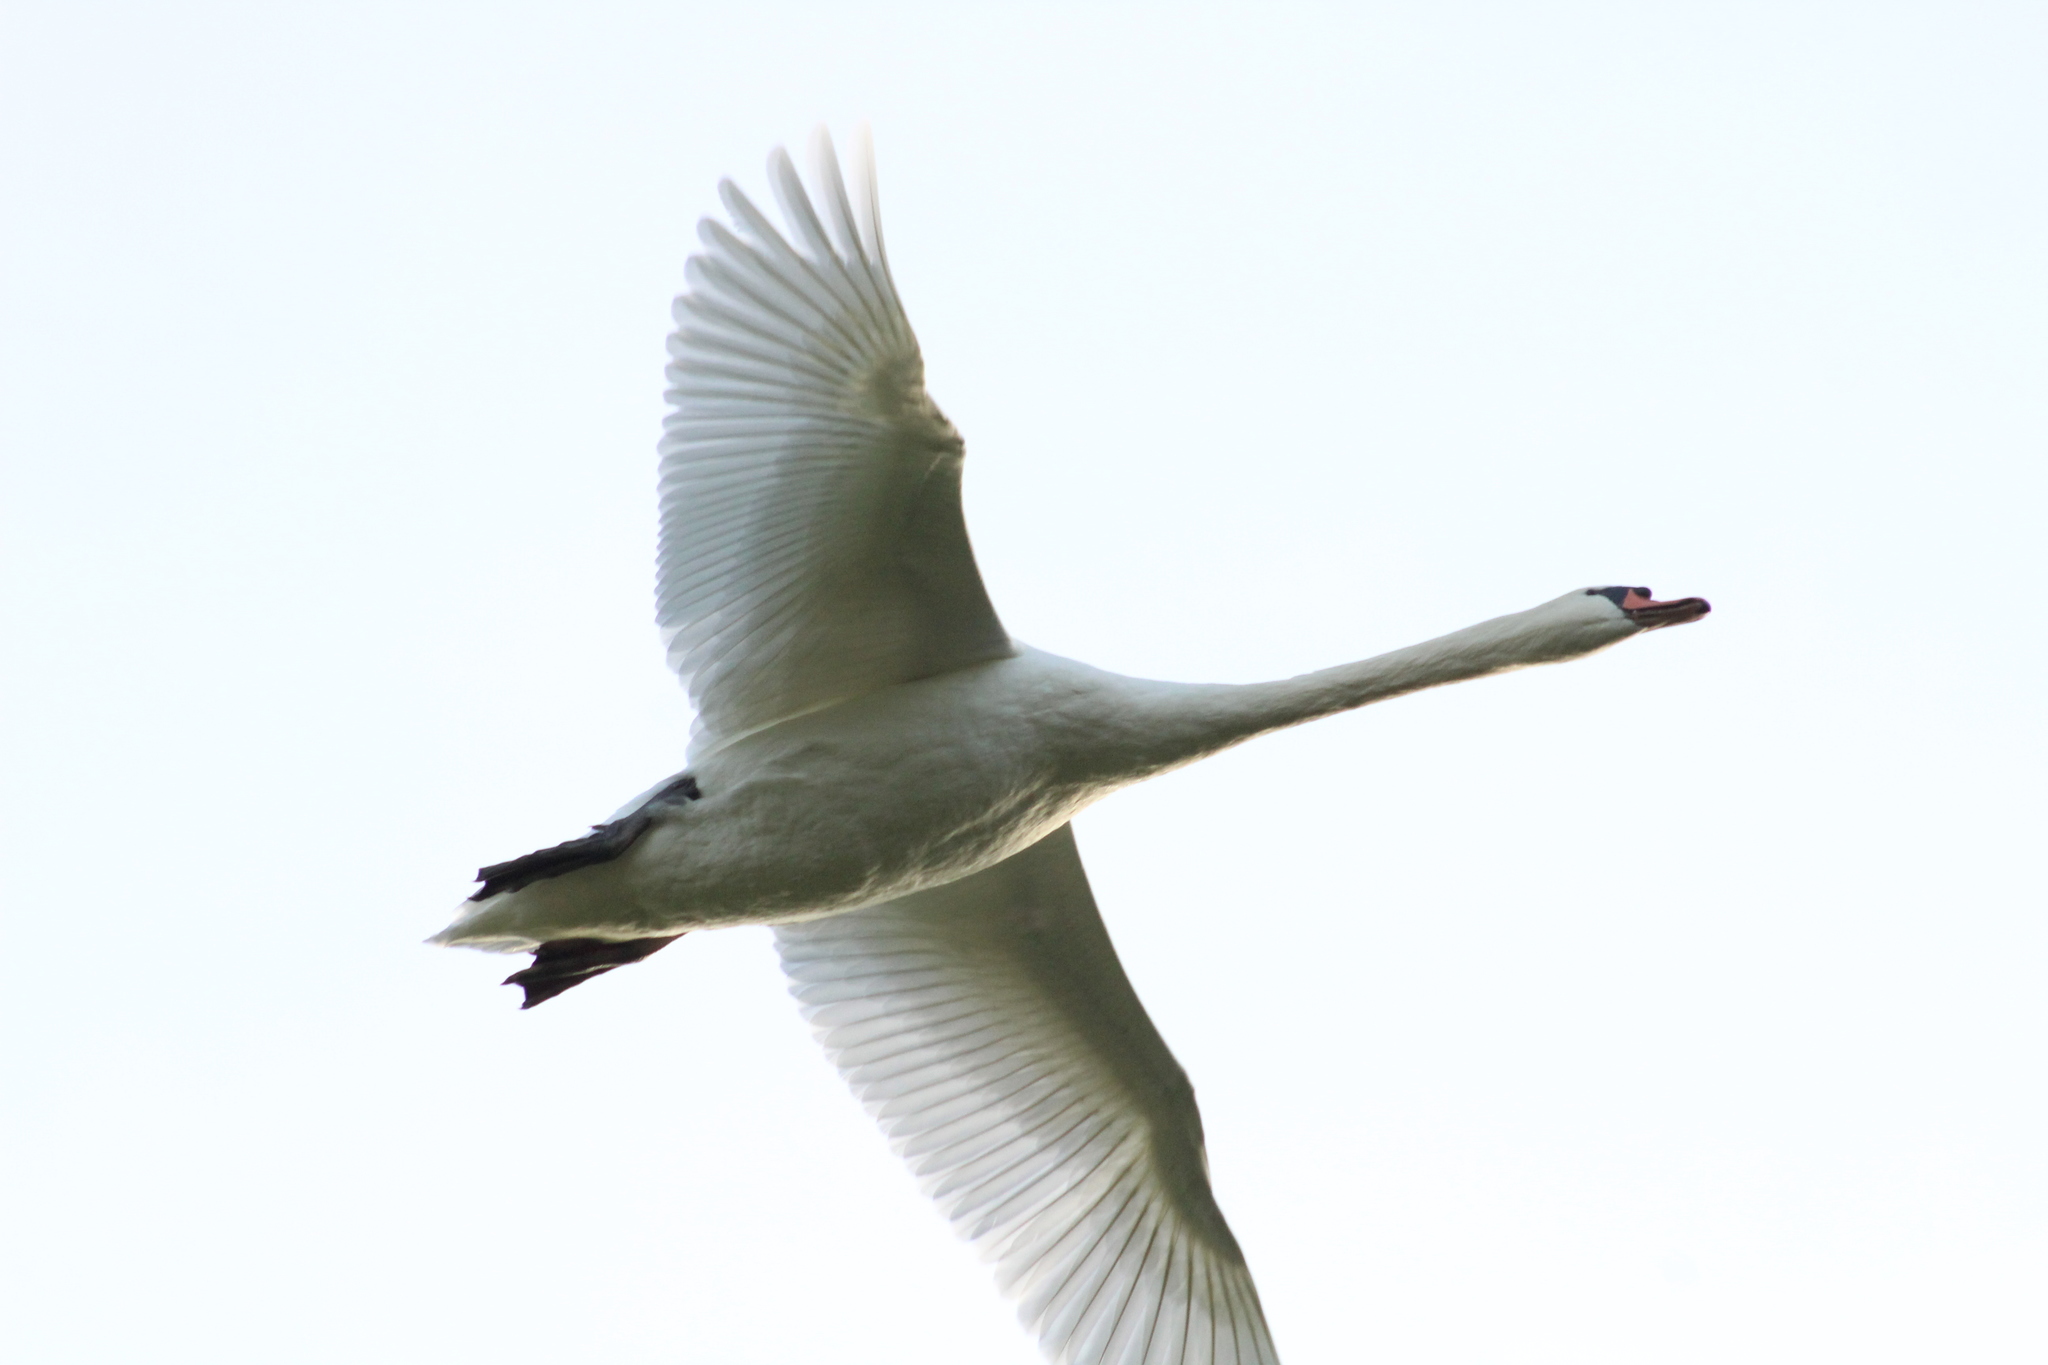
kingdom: Animalia
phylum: Chordata
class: Aves
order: Anseriformes
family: Anatidae
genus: Cygnus
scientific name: Cygnus olor
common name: Mute swan
